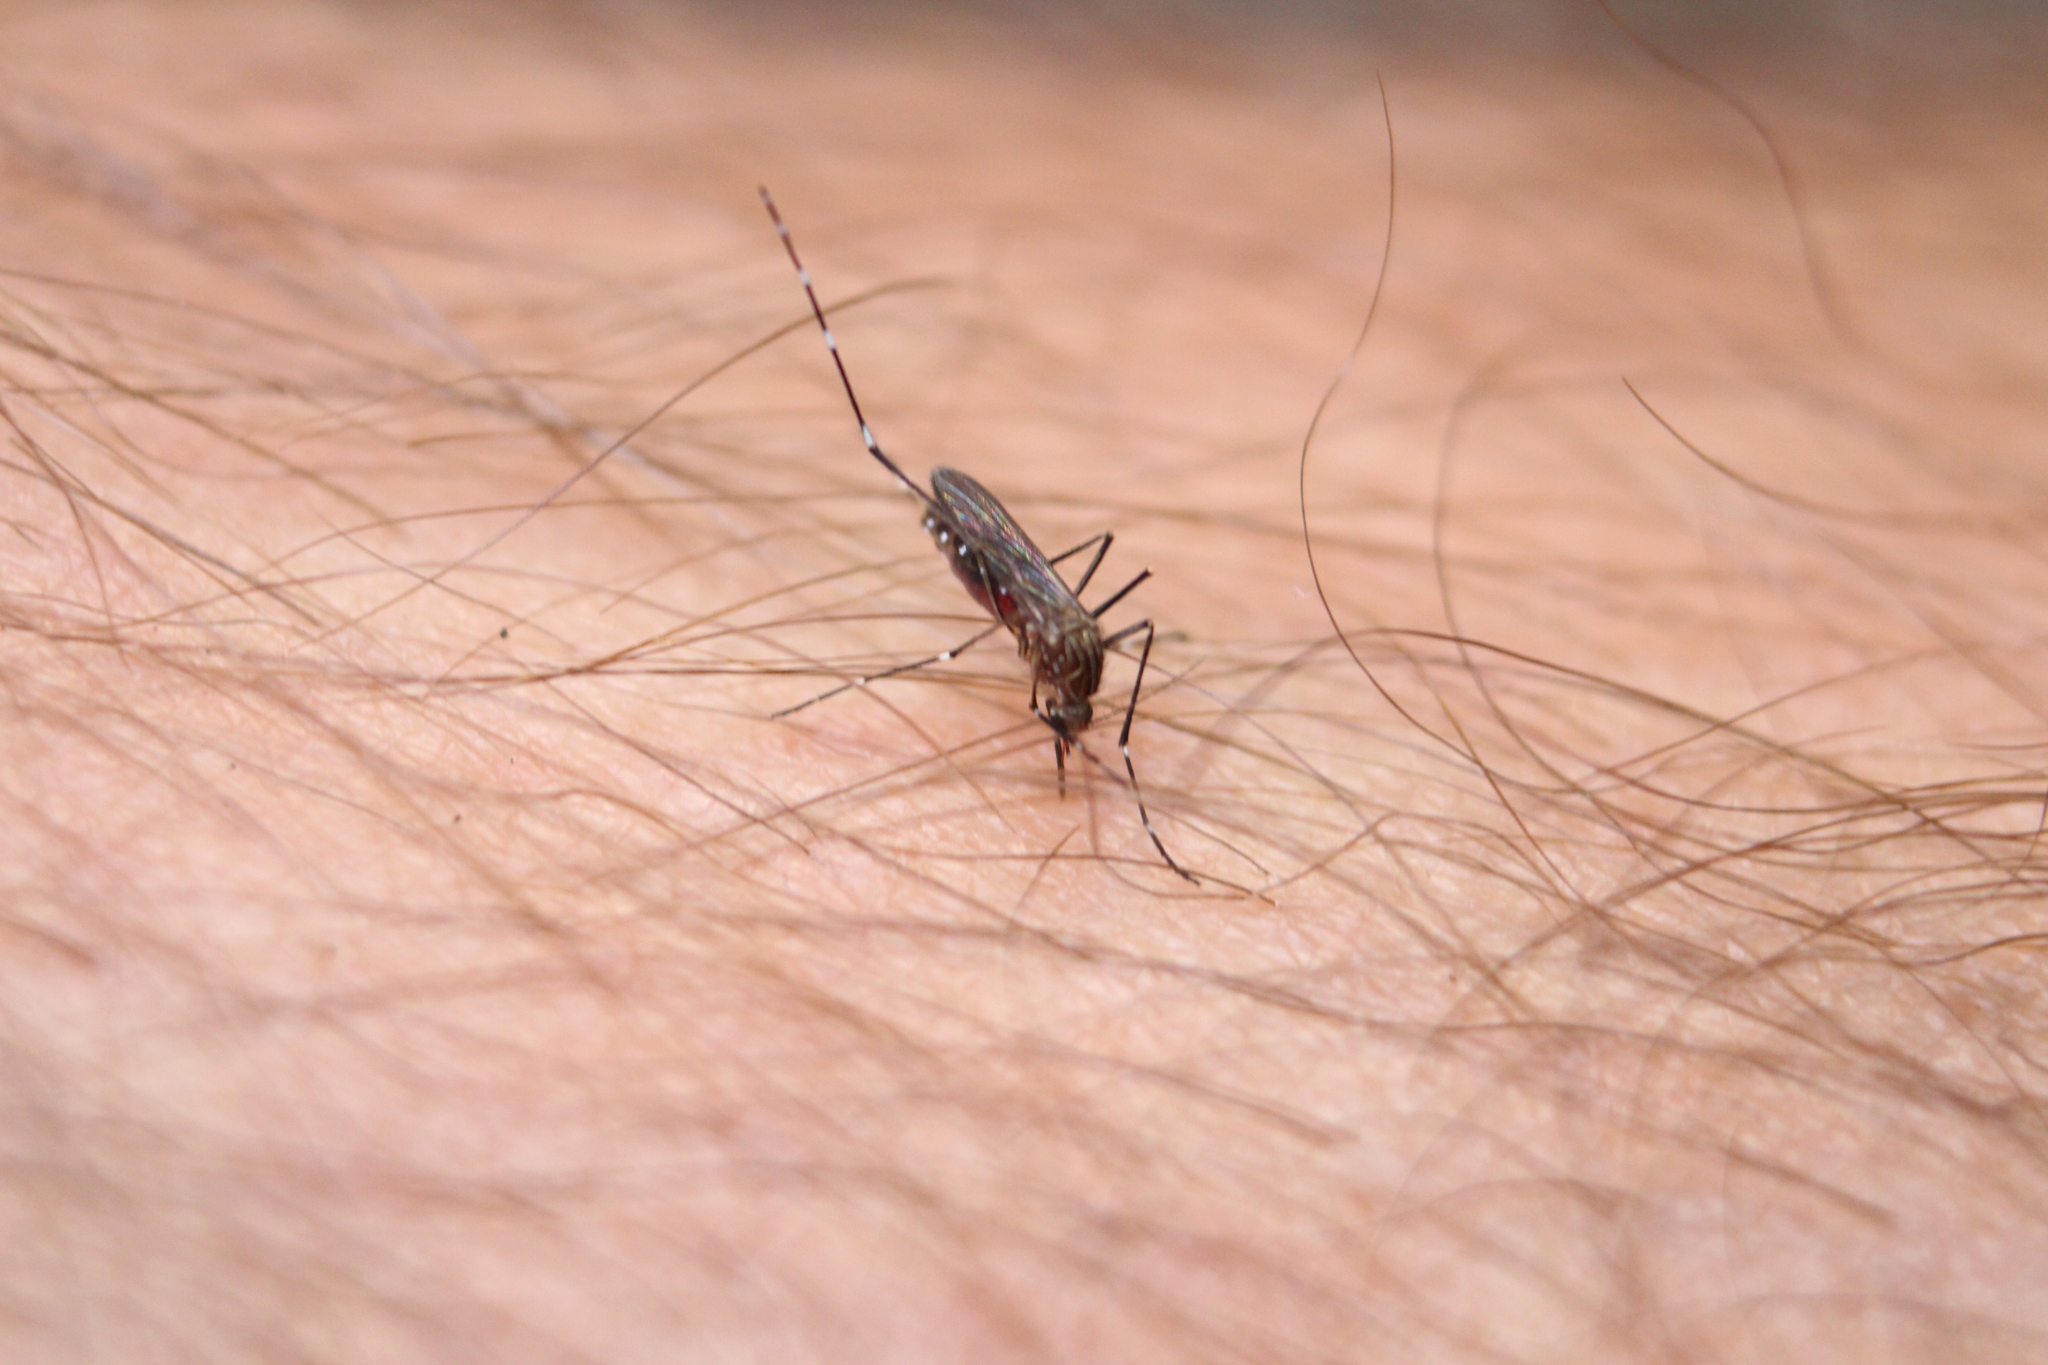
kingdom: Animalia
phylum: Arthropoda
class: Insecta
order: Diptera
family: Culicidae
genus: Aedes
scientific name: Aedes notoscriptus
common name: Australian backyard mosquito
